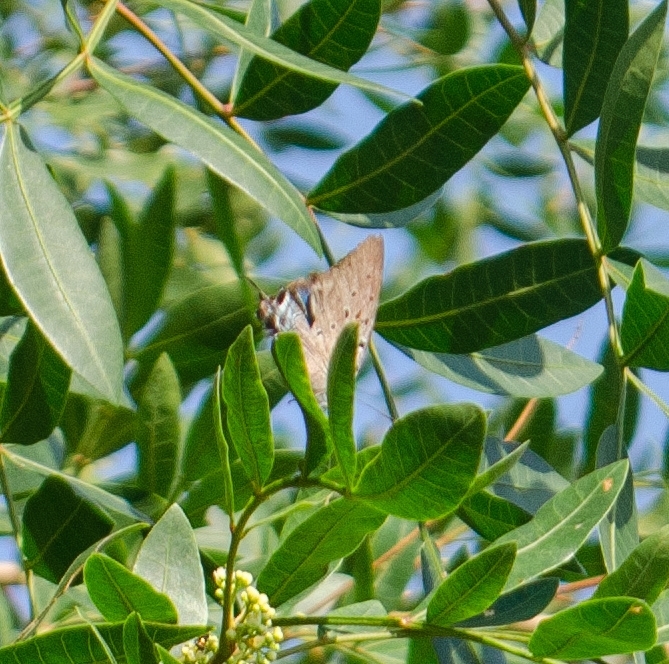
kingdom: Animalia
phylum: Arthropoda
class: Insecta
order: Lepidoptera
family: Lycaenidae
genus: Pseudolycaena
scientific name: Pseudolycaena marsyas
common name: Marsyas hairstreak
